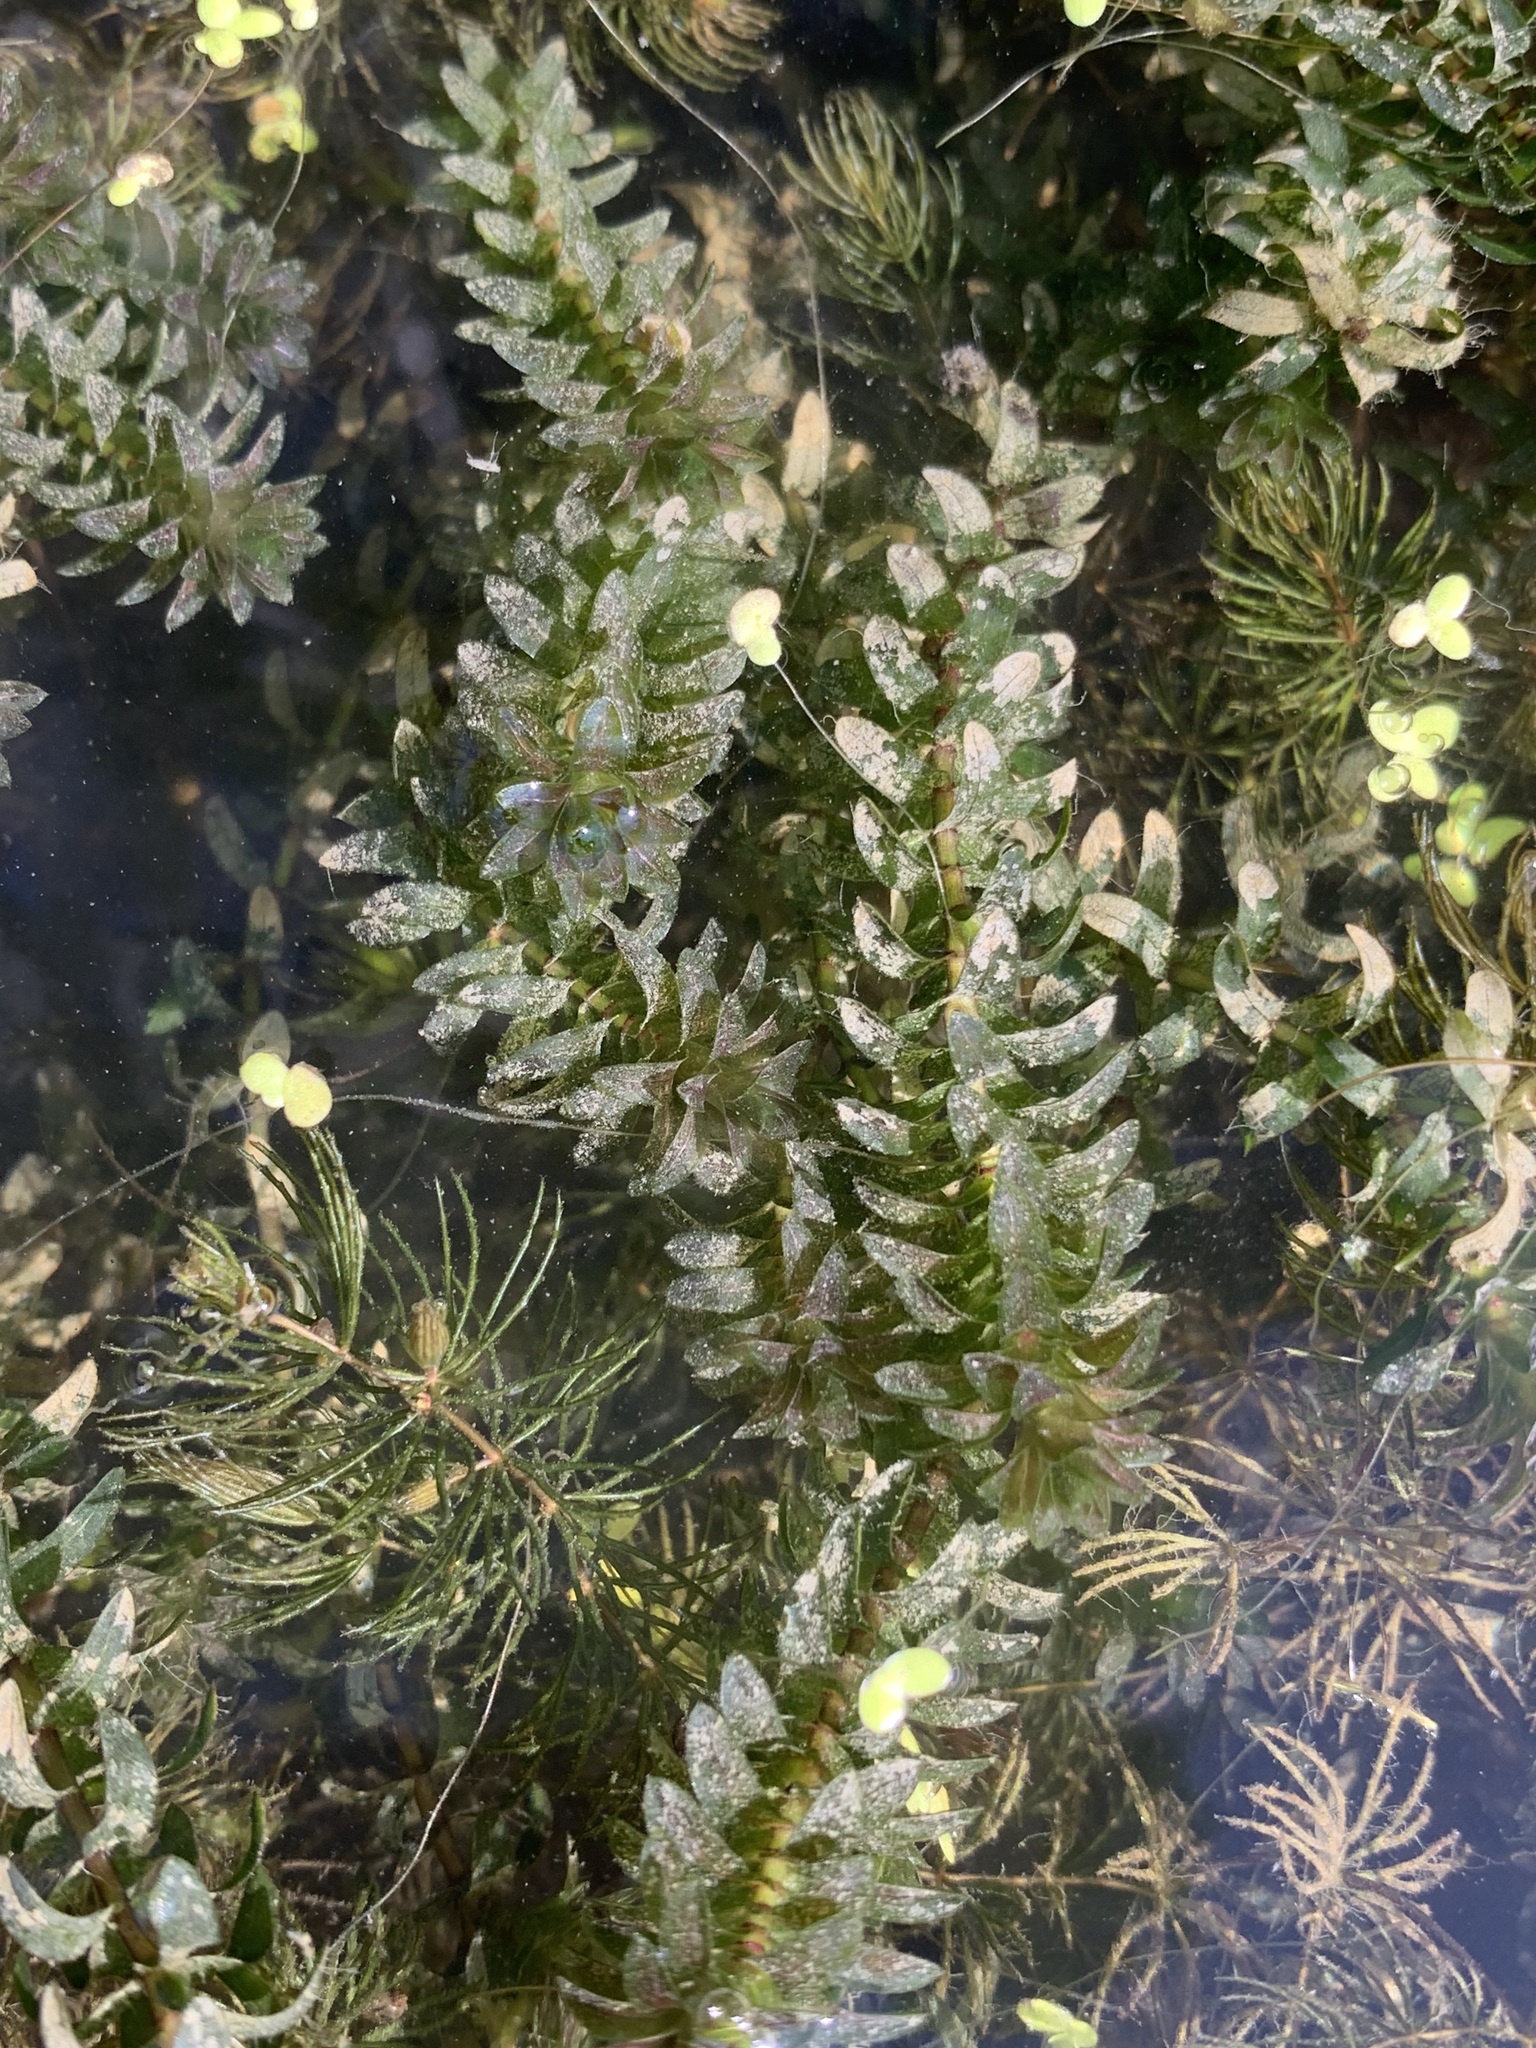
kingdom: Plantae
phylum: Tracheophyta
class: Liliopsida
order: Alismatales
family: Hydrocharitaceae
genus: Elodea
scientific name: Elodea canadensis
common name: Canadian waterweed
